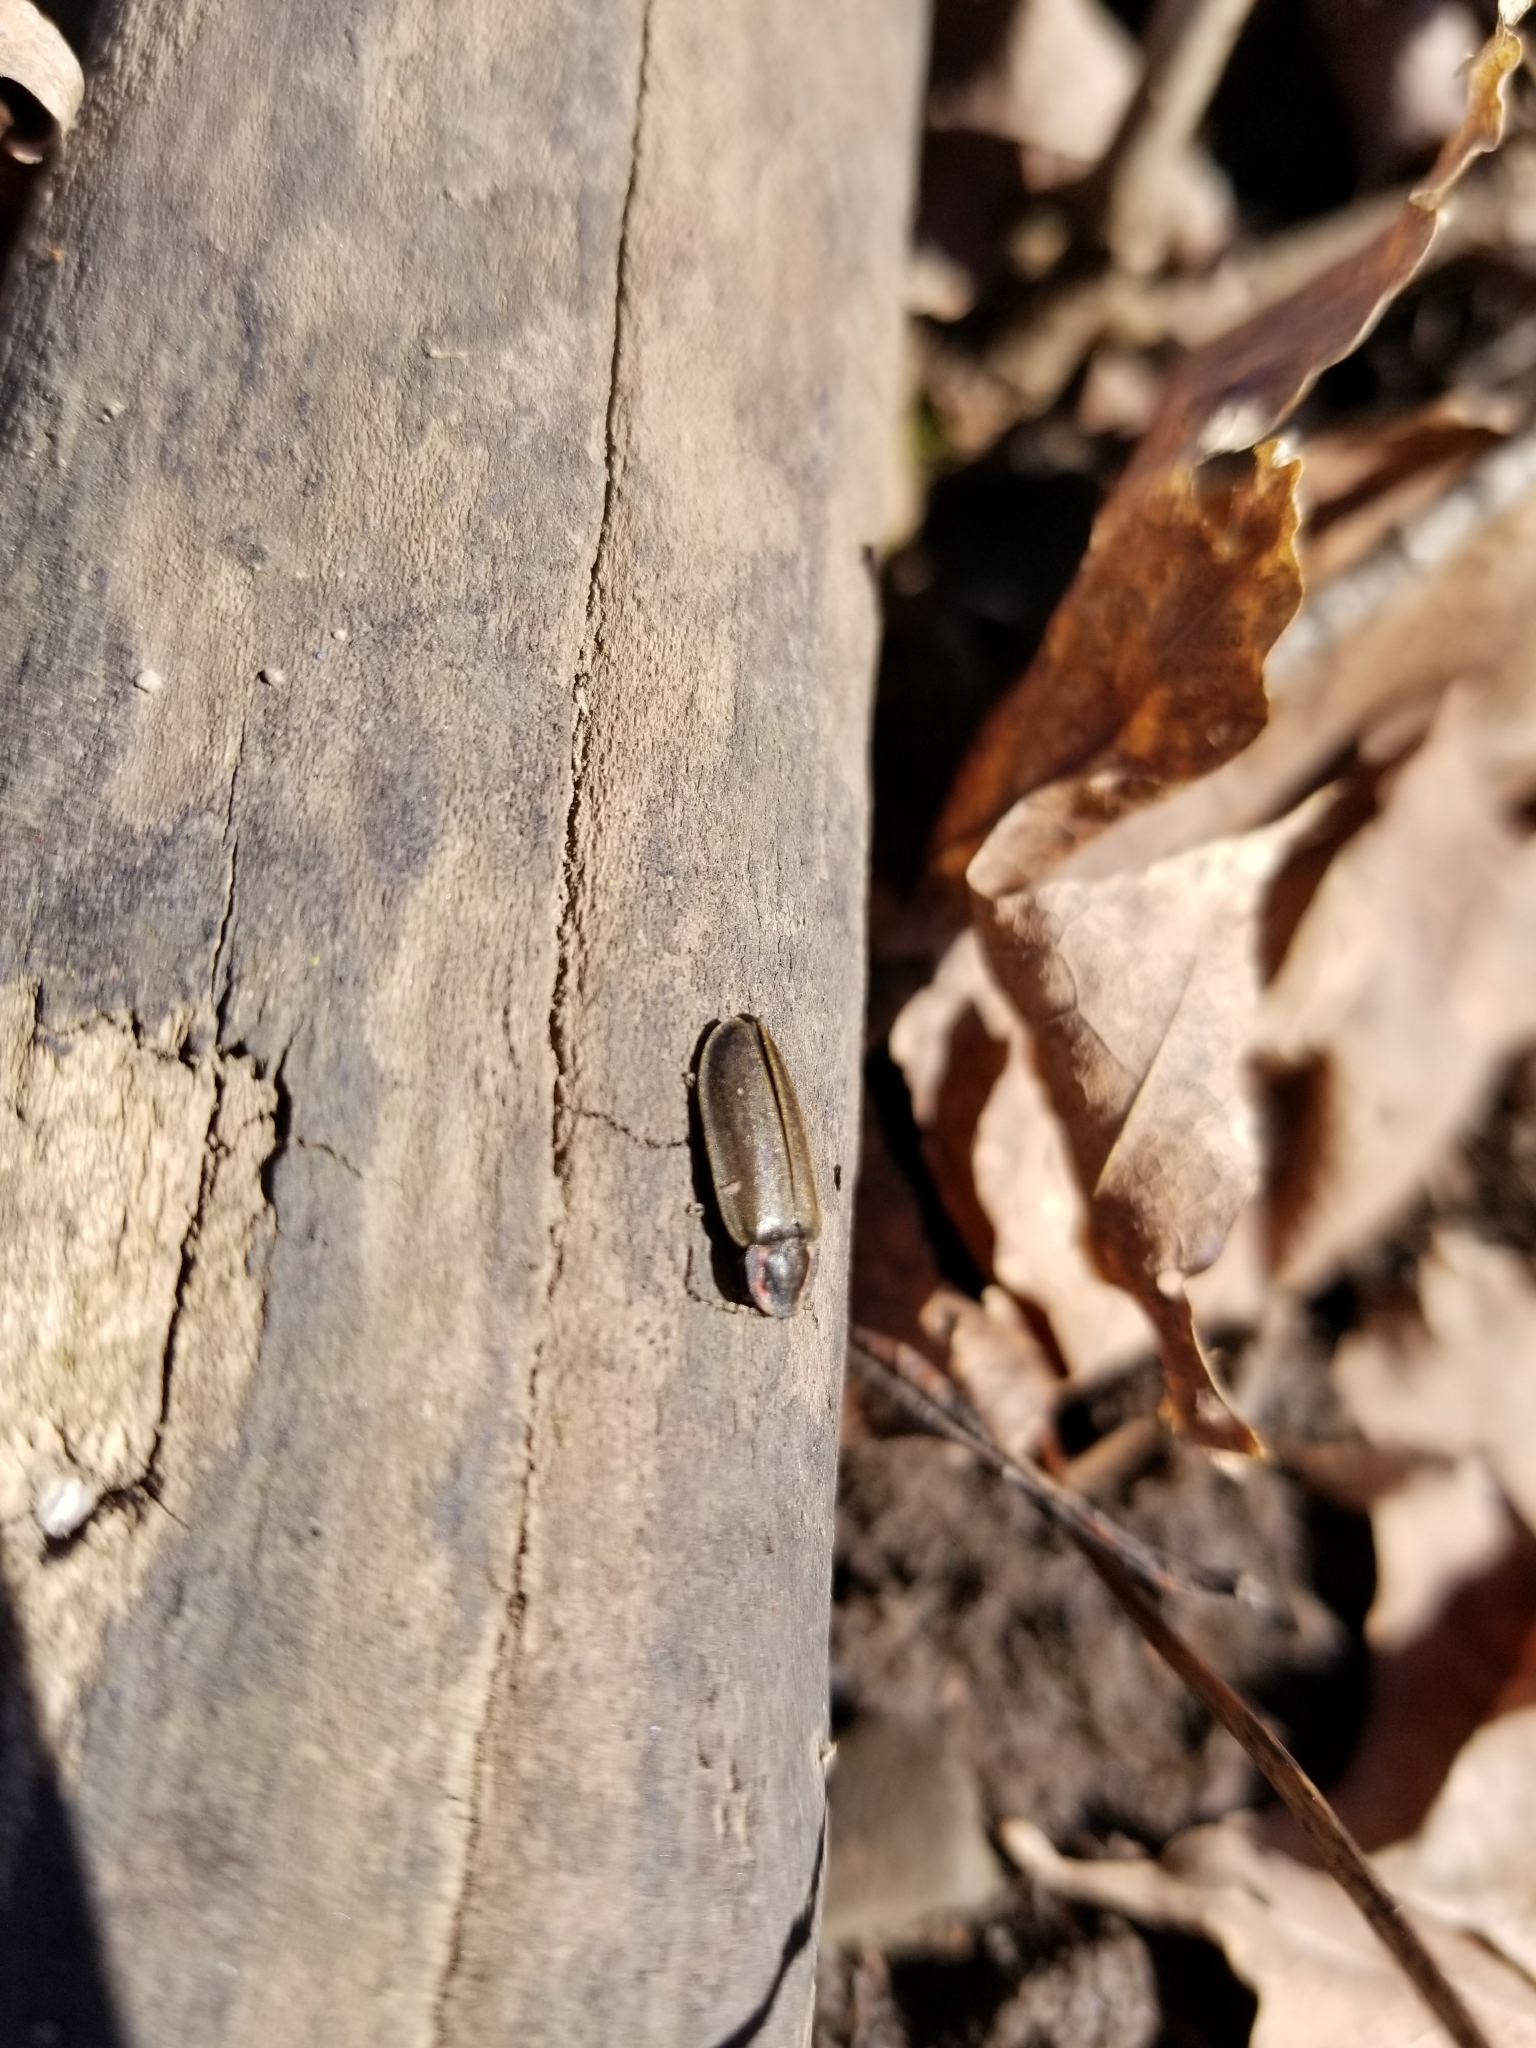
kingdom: Animalia
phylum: Arthropoda
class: Insecta
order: Coleoptera
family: Lampyridae
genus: Photinus
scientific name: Photinus corrusca
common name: Winter firefly
